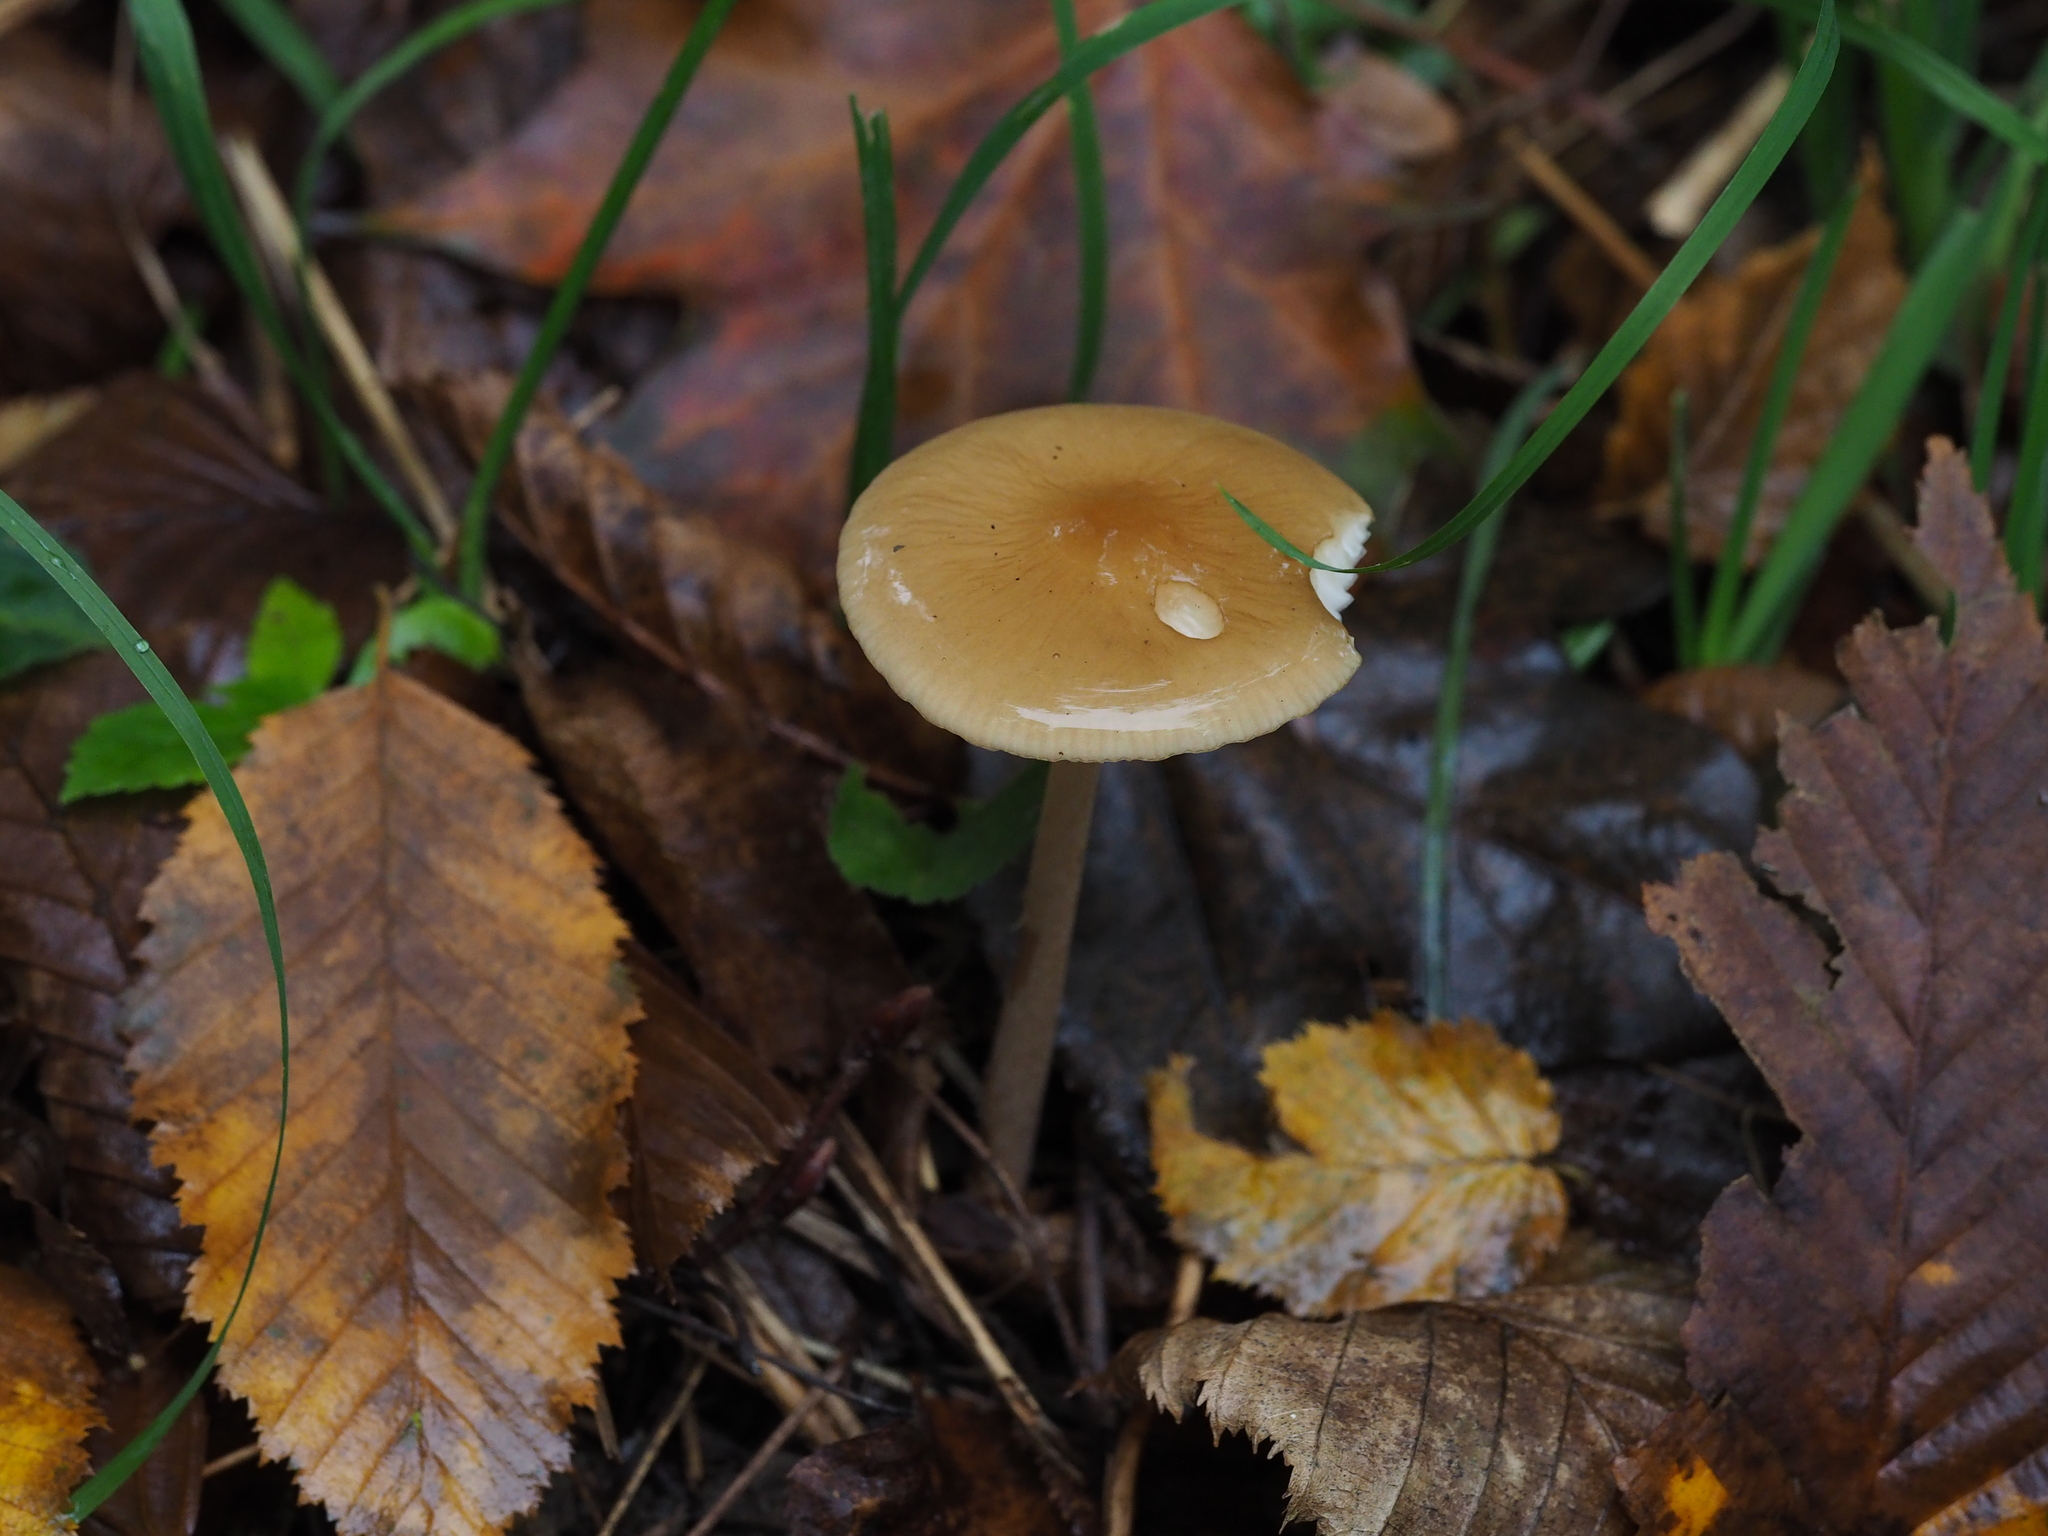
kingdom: Fungi
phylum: Basidiomycota
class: Agaricomycetes
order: Agaricales
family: Physalacriaceae
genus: Hymenopellis
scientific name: Hymenopellis radicata
